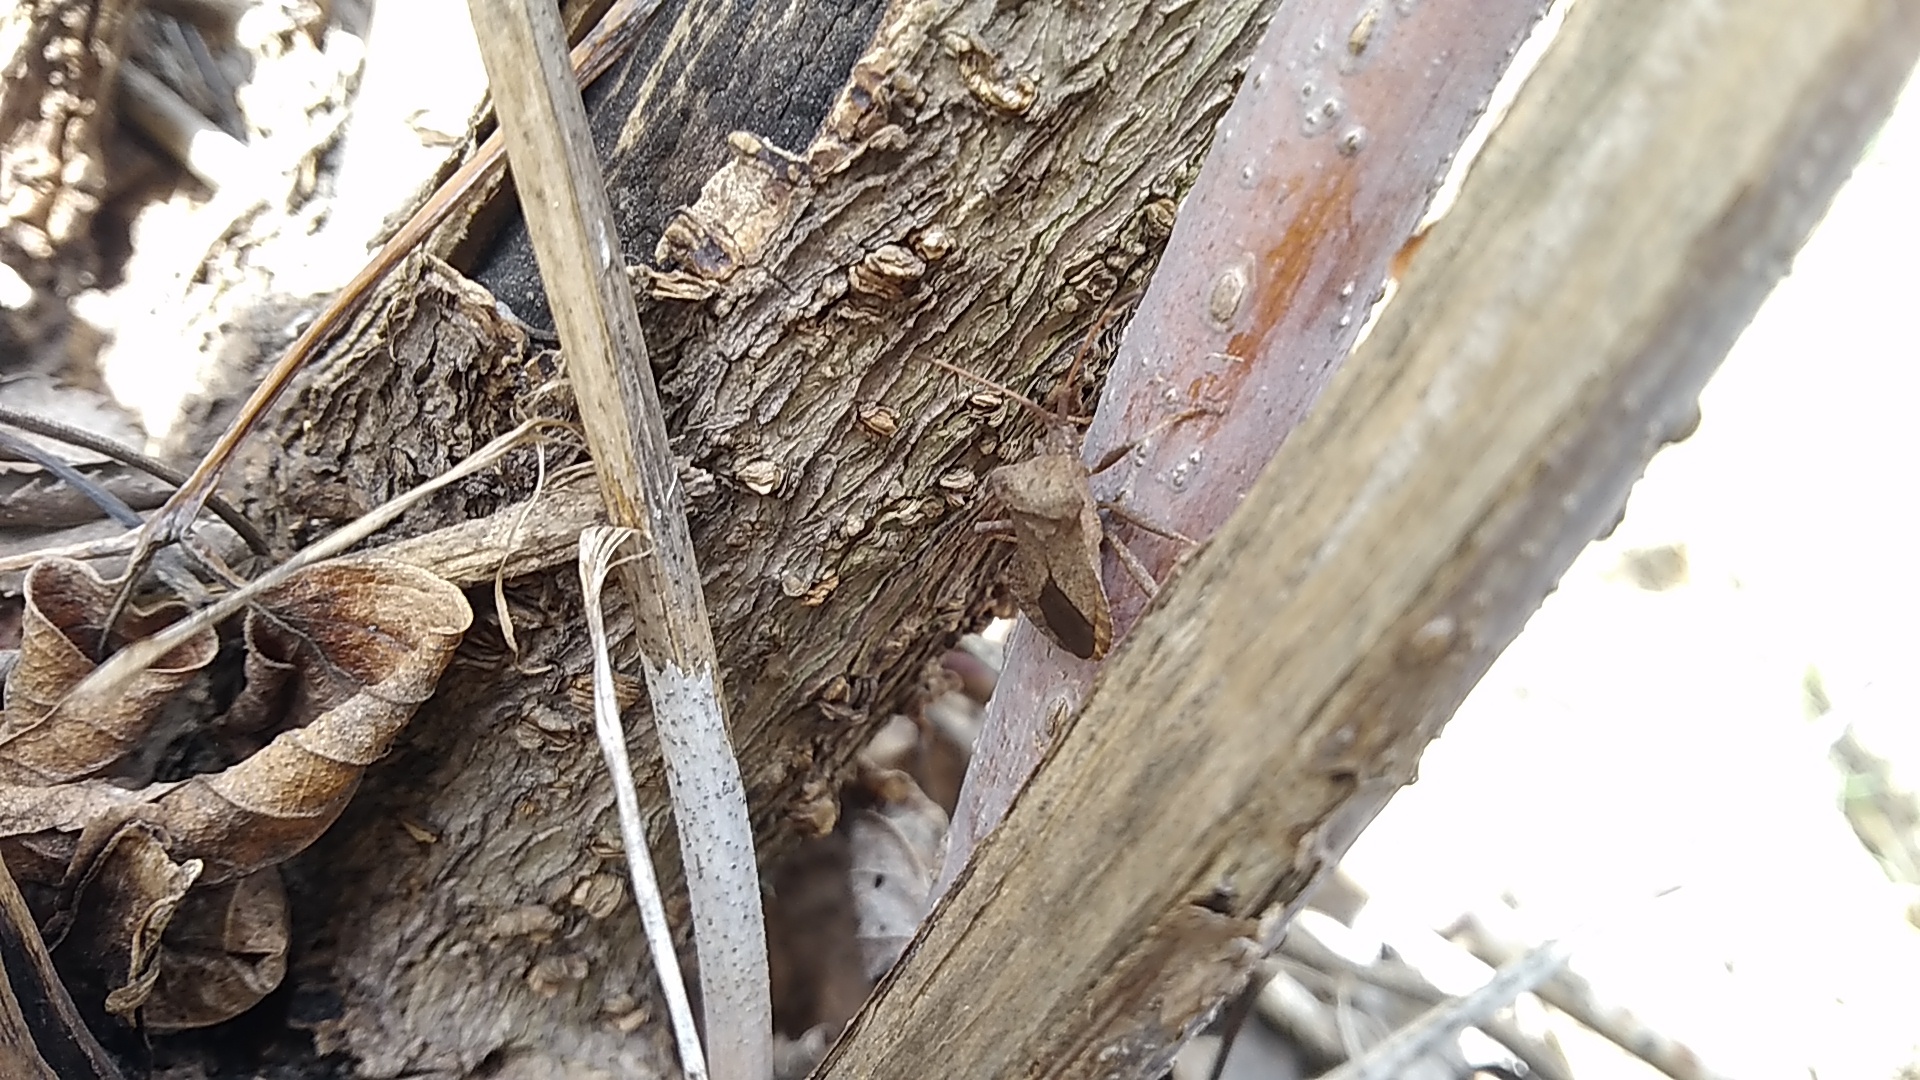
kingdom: Animalia
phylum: Arthropoda
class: Insecta
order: Hemiptera
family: Coreidae
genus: Coreus
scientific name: Coreus marginatus
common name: Dock bug
